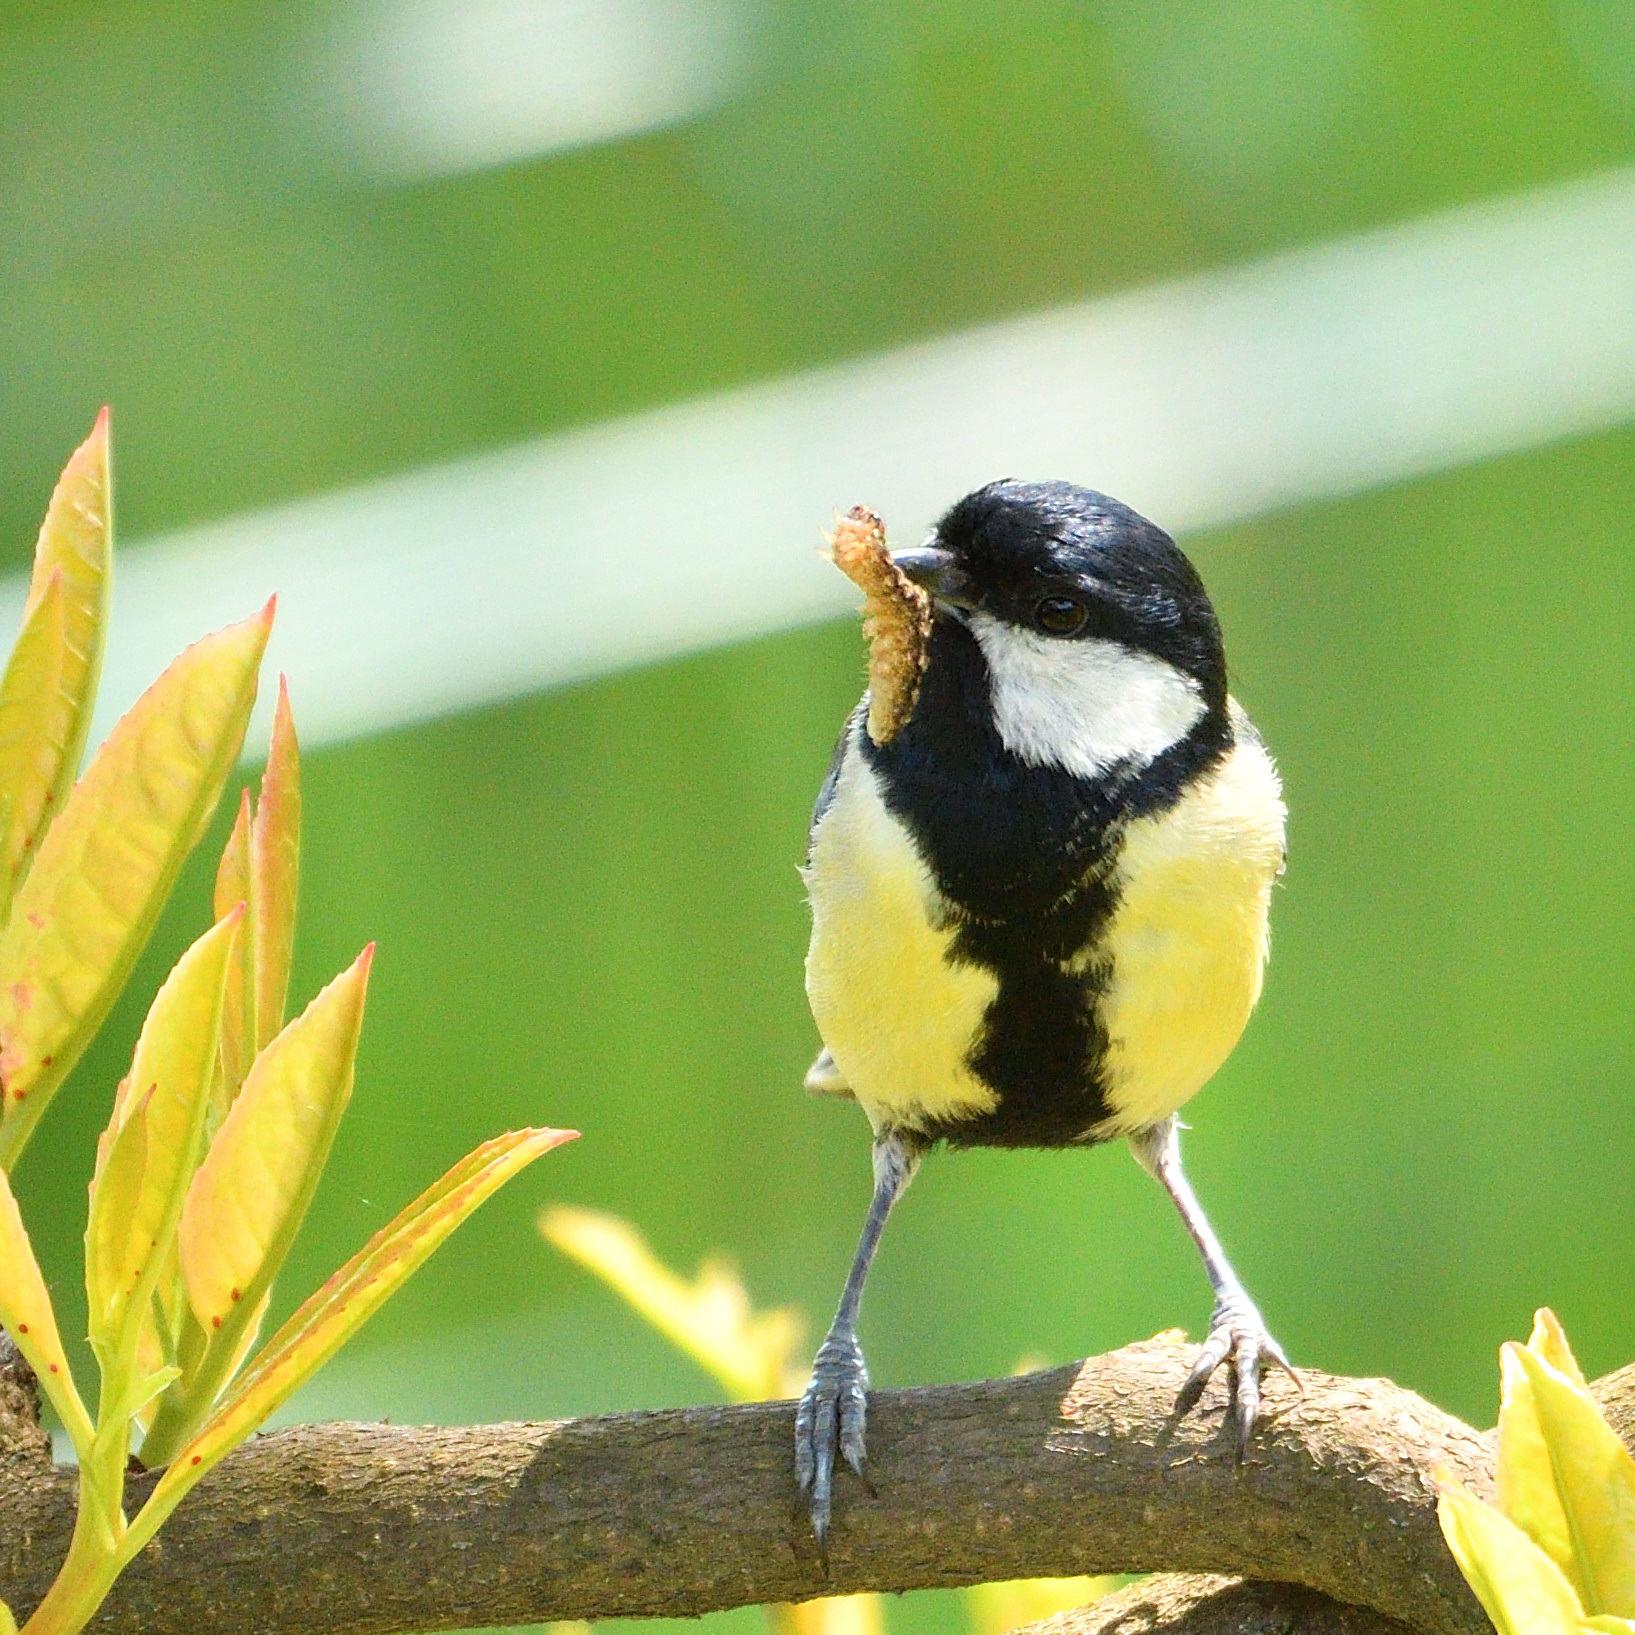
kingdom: Animalia
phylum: Chordata
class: Aves
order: Passeriformes
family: Paridae
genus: Parus
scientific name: Parus major
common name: Great tit
